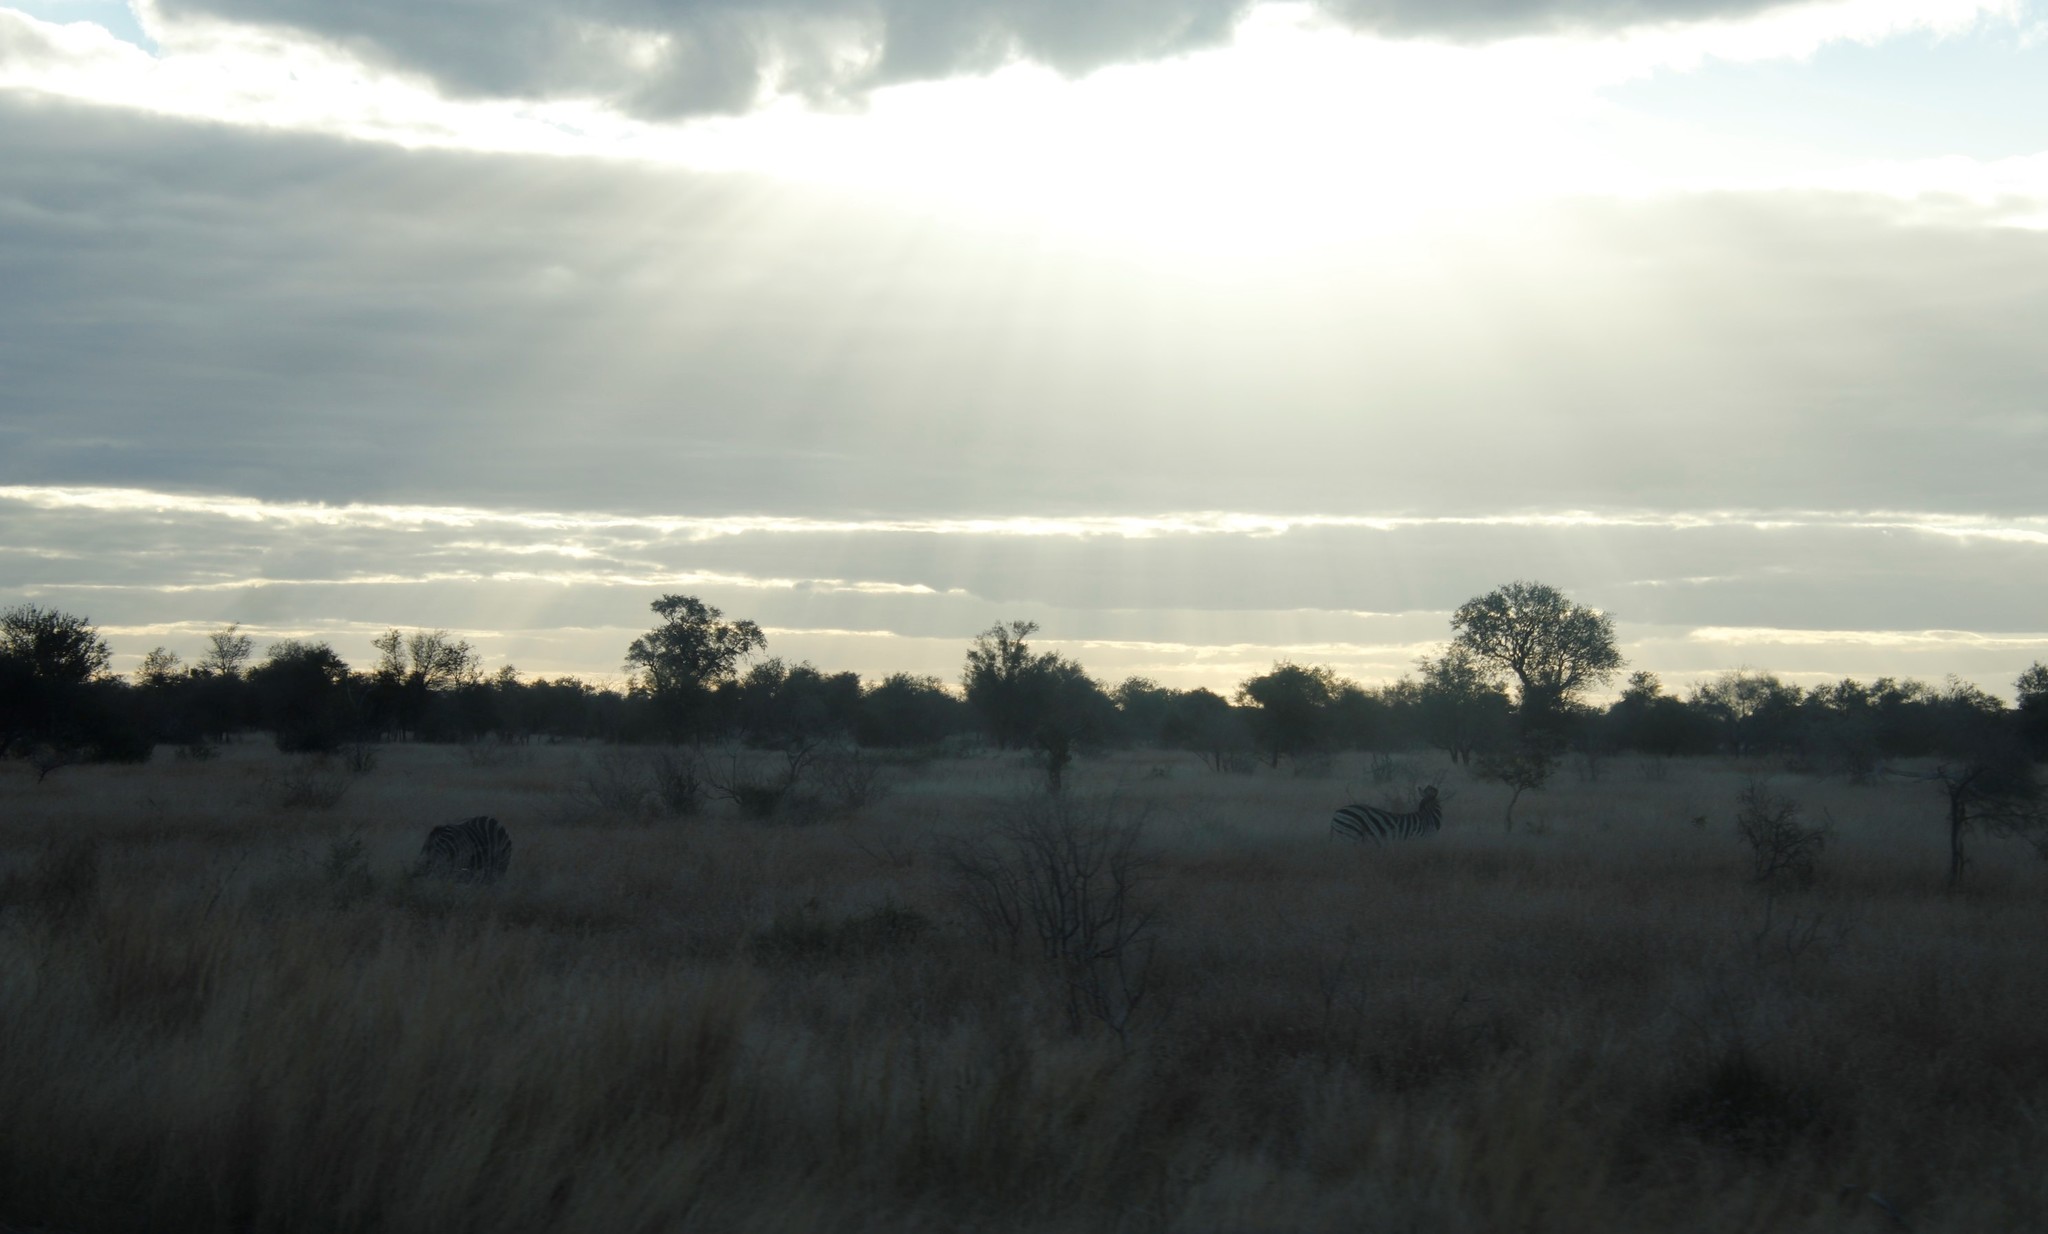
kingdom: Animalia
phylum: Chordata
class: Mammalia
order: Perissodactyla
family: Equidae
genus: Equus
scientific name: Equus quagga
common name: Plains zebra
